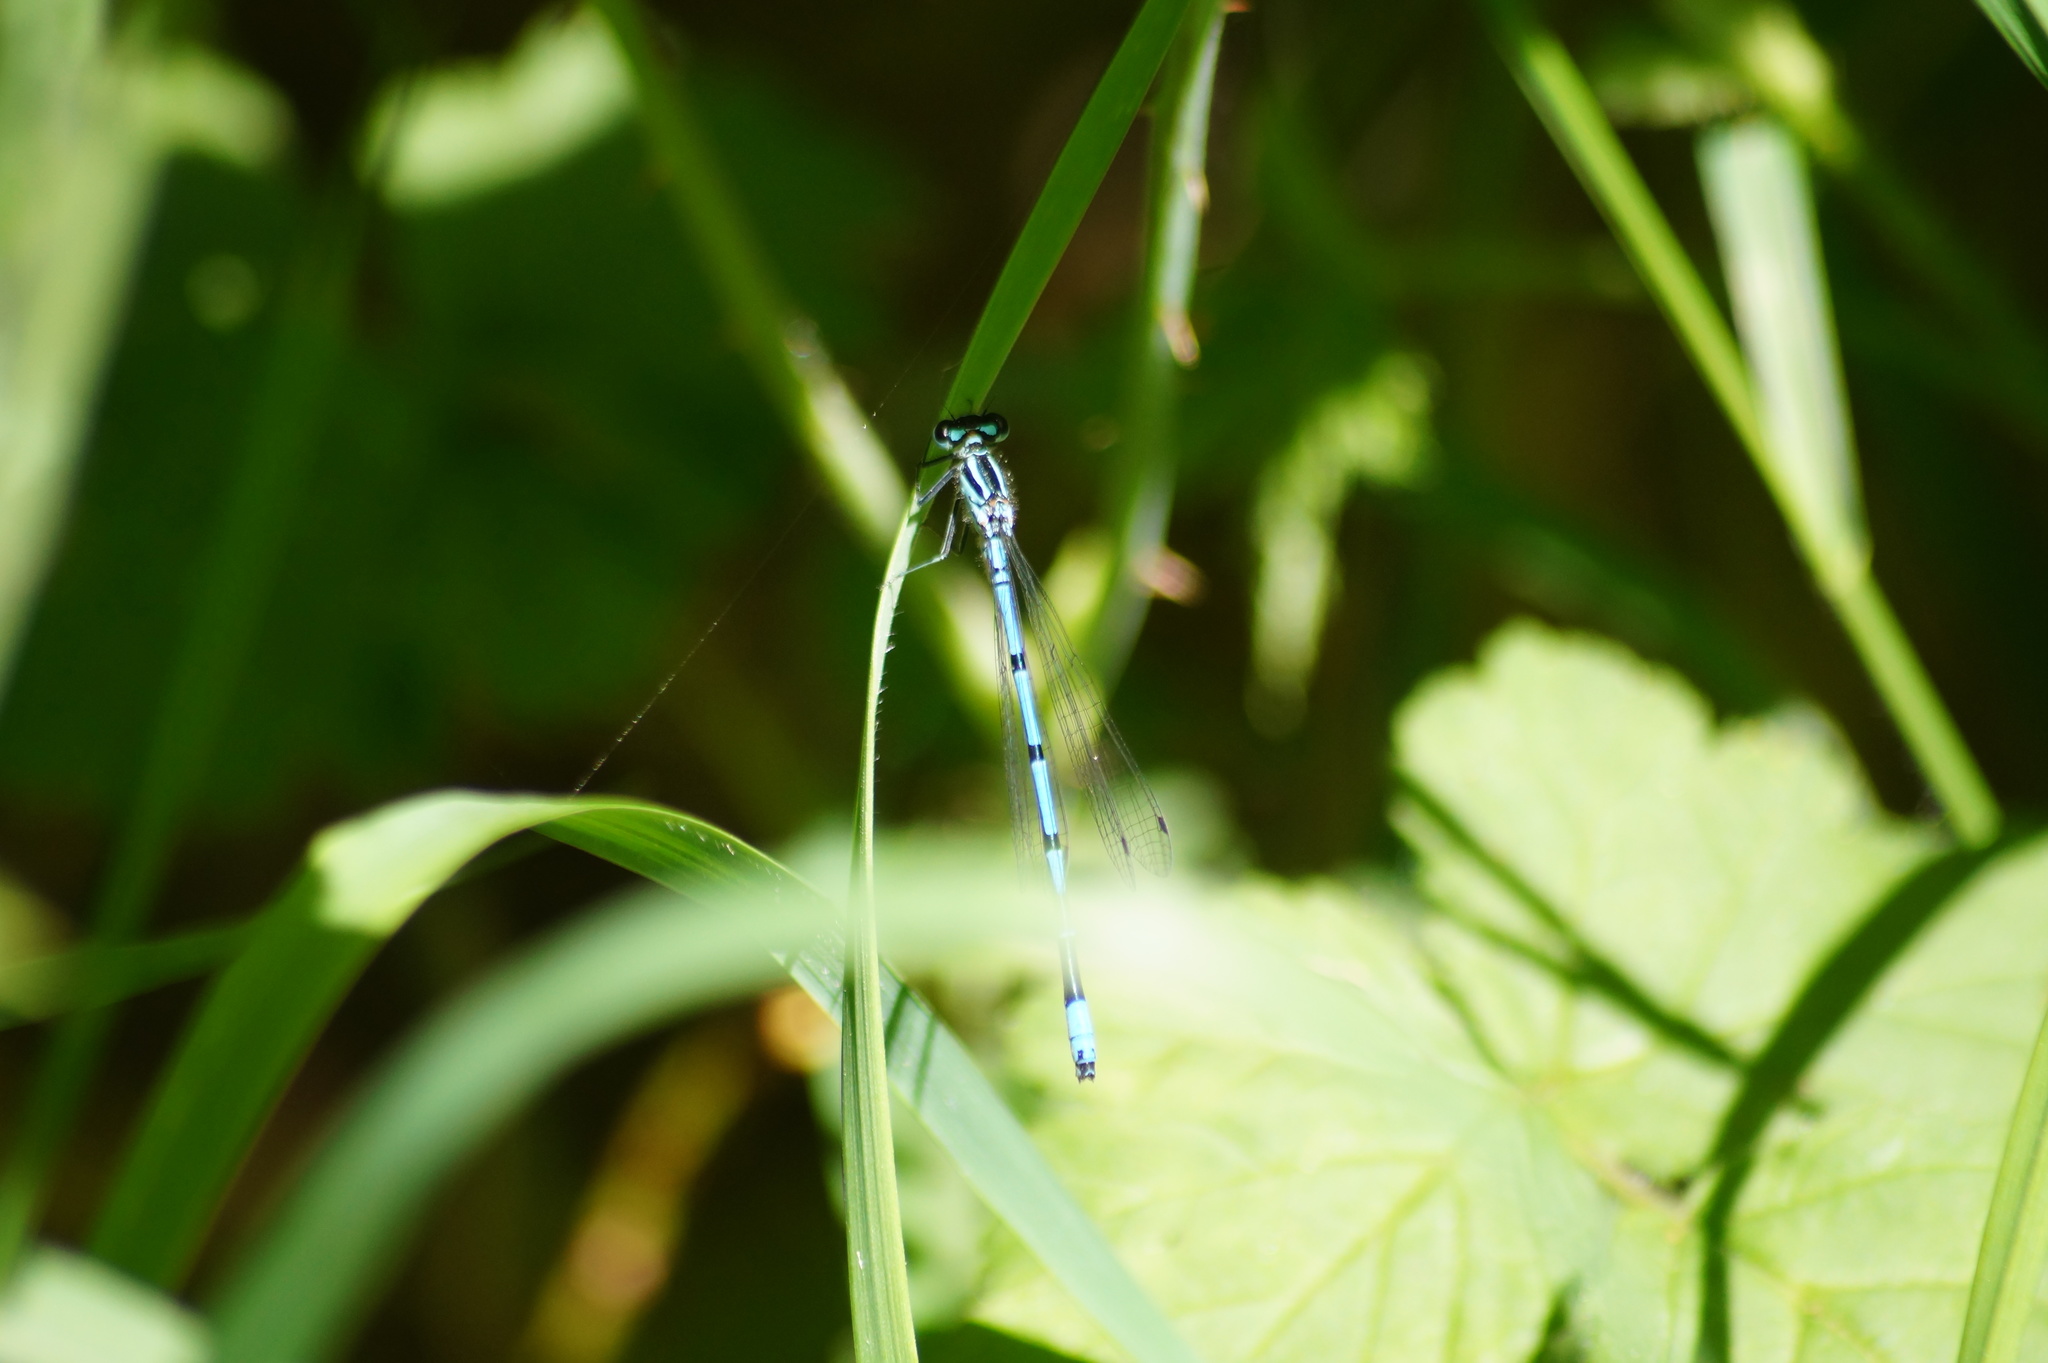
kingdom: Animalia
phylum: Arthropoda
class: Insecta
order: Odonata
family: Coenagrionidae
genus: Coenagrion
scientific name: Coenagrion puella
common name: Azure damselfly
